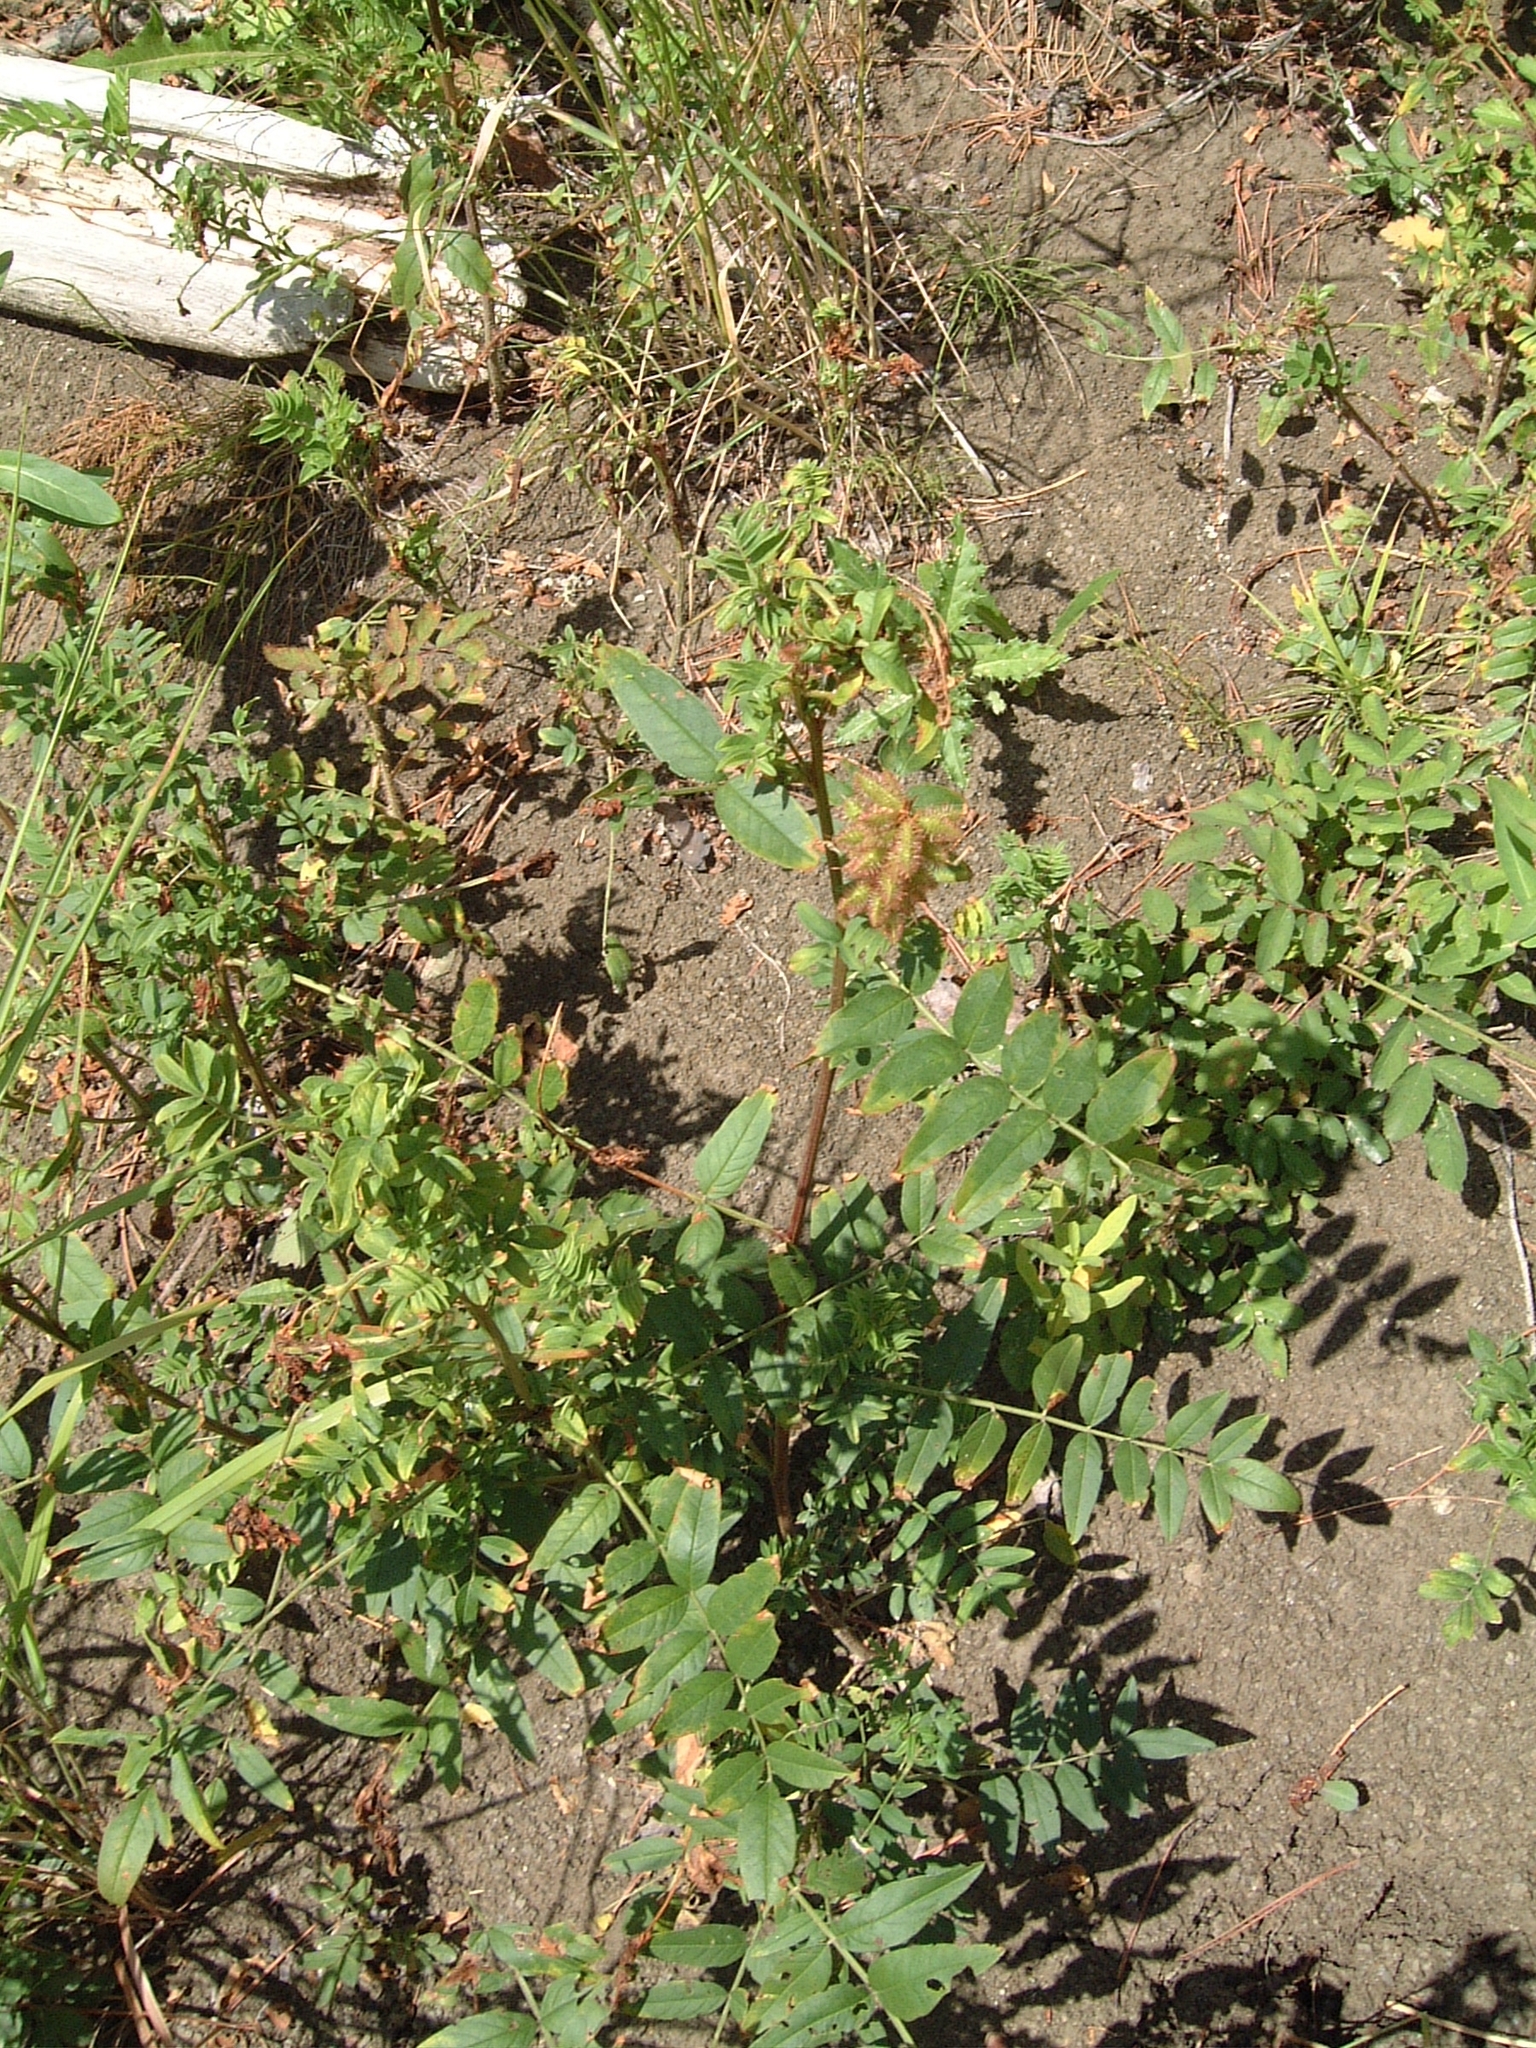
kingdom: Plantae
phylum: Tracheophyta
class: Magnoliopsida
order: Fabales
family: Fabaceae
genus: Glycyrrhiza
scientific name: Glycyrrhiza lepidota
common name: American liquorice
